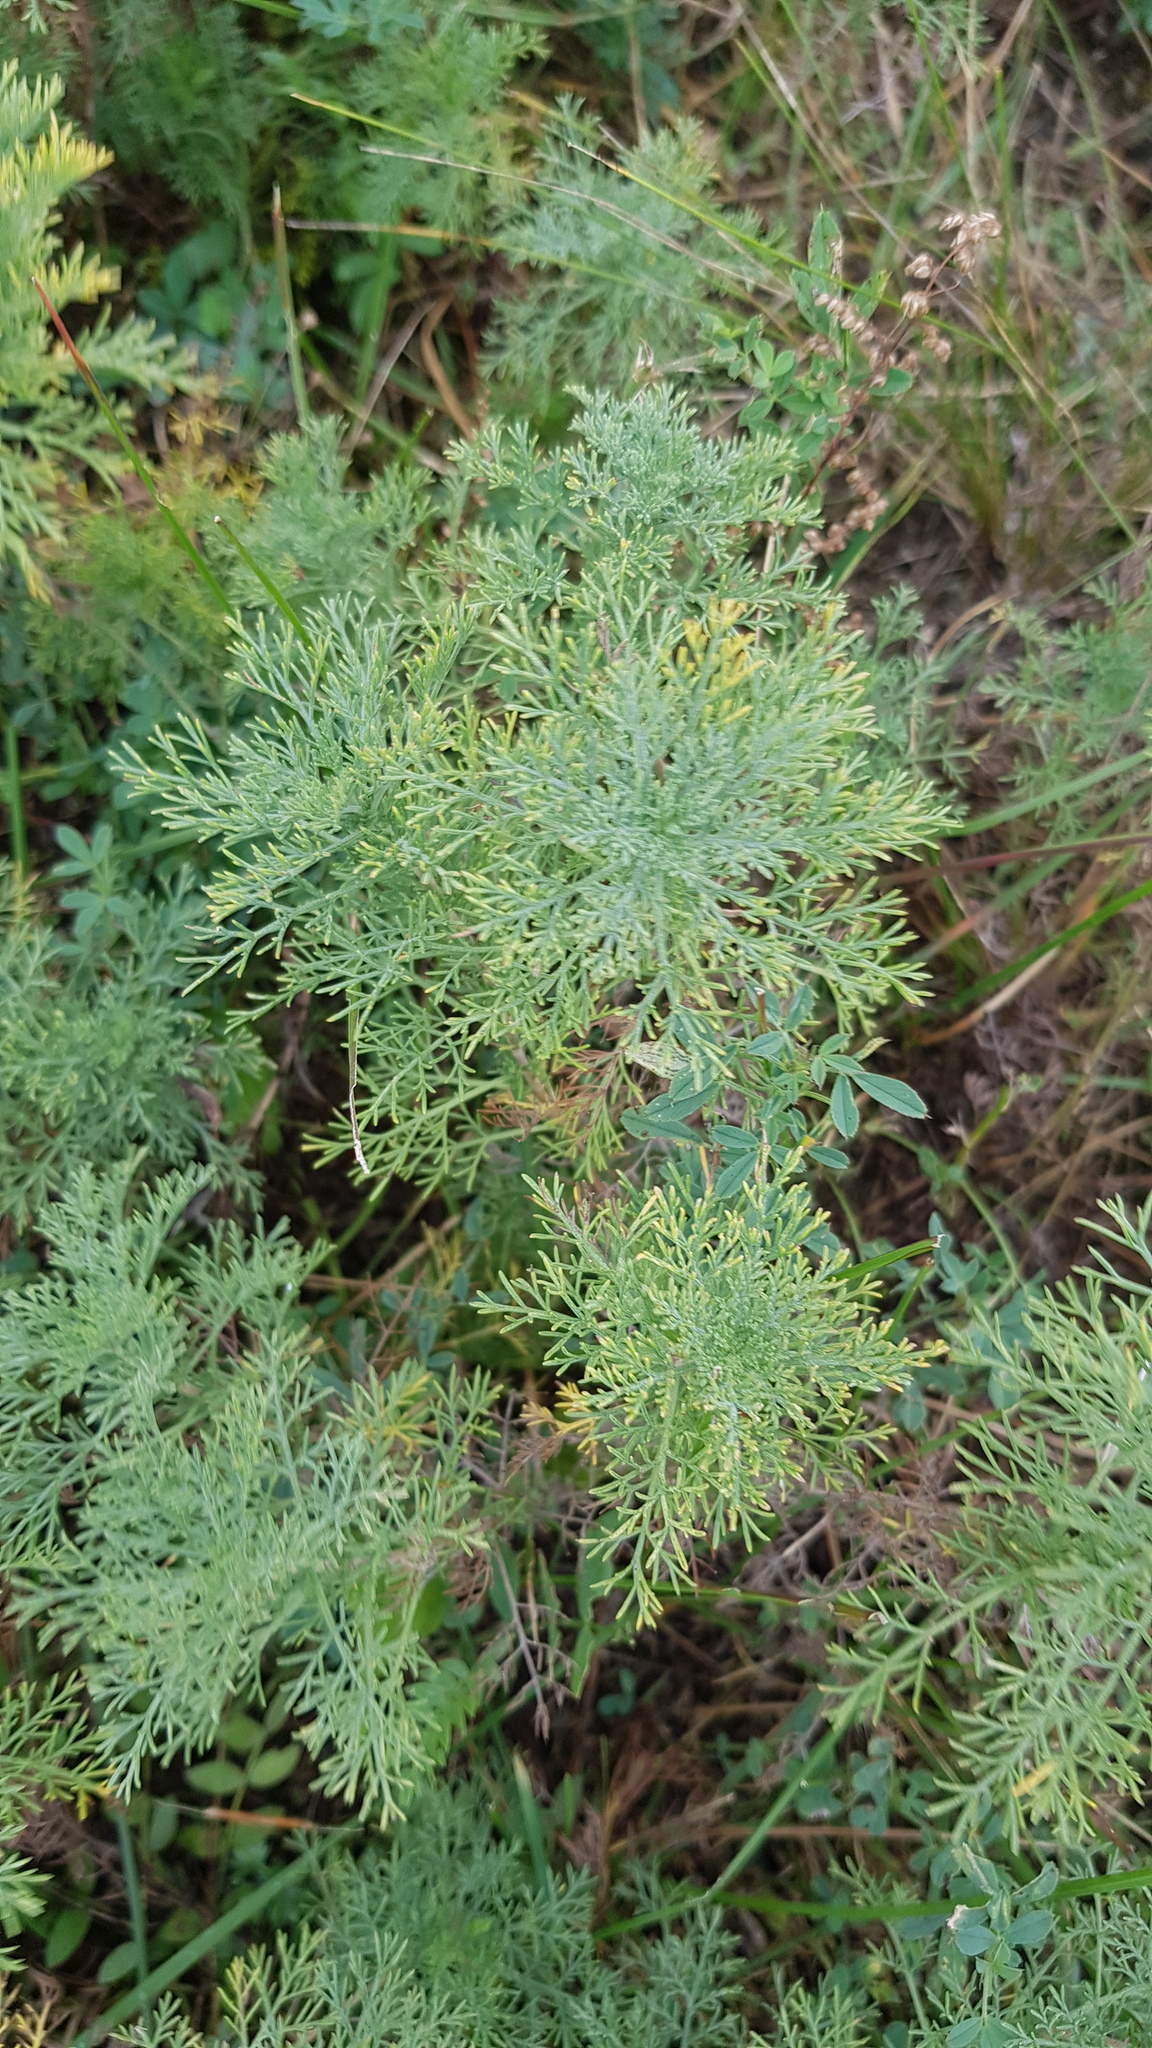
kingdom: Plantae
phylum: Tracheophyta
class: Magnoliopsida
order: Asterales
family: Asteraceae
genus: Artemisia
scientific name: Artemisia adamsii
